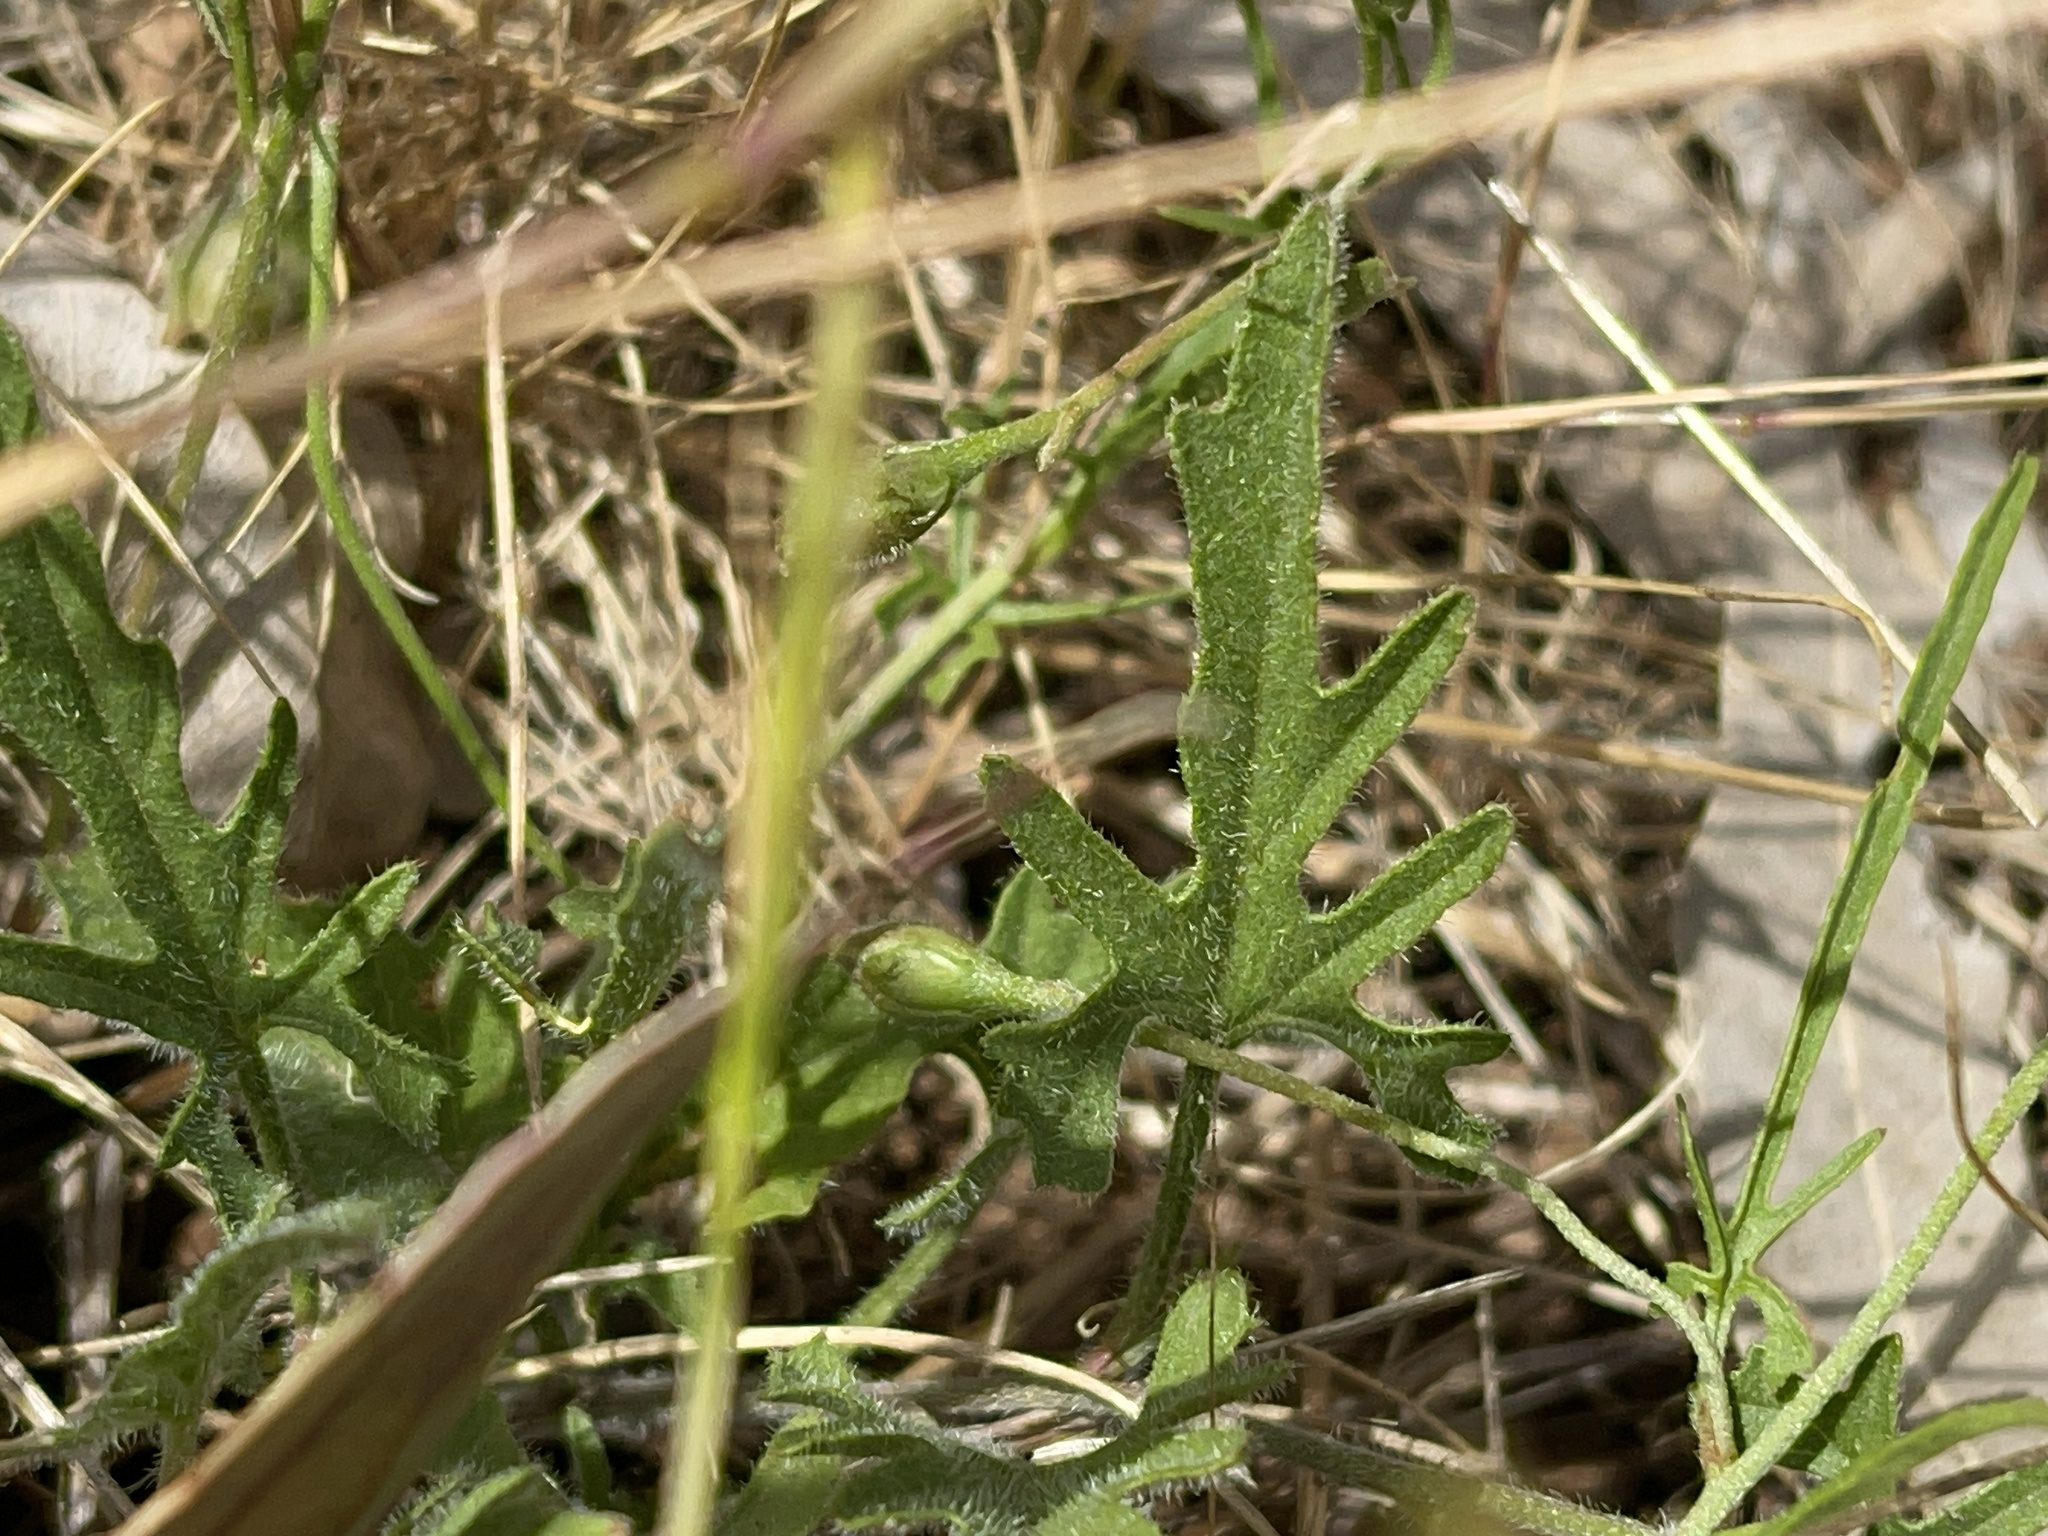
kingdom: Plantae
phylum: Tracheophyta
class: Magnoliopsida
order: Solanales
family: Convolvulaceae
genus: Convolvulus
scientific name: Convolvulus angustissimus
